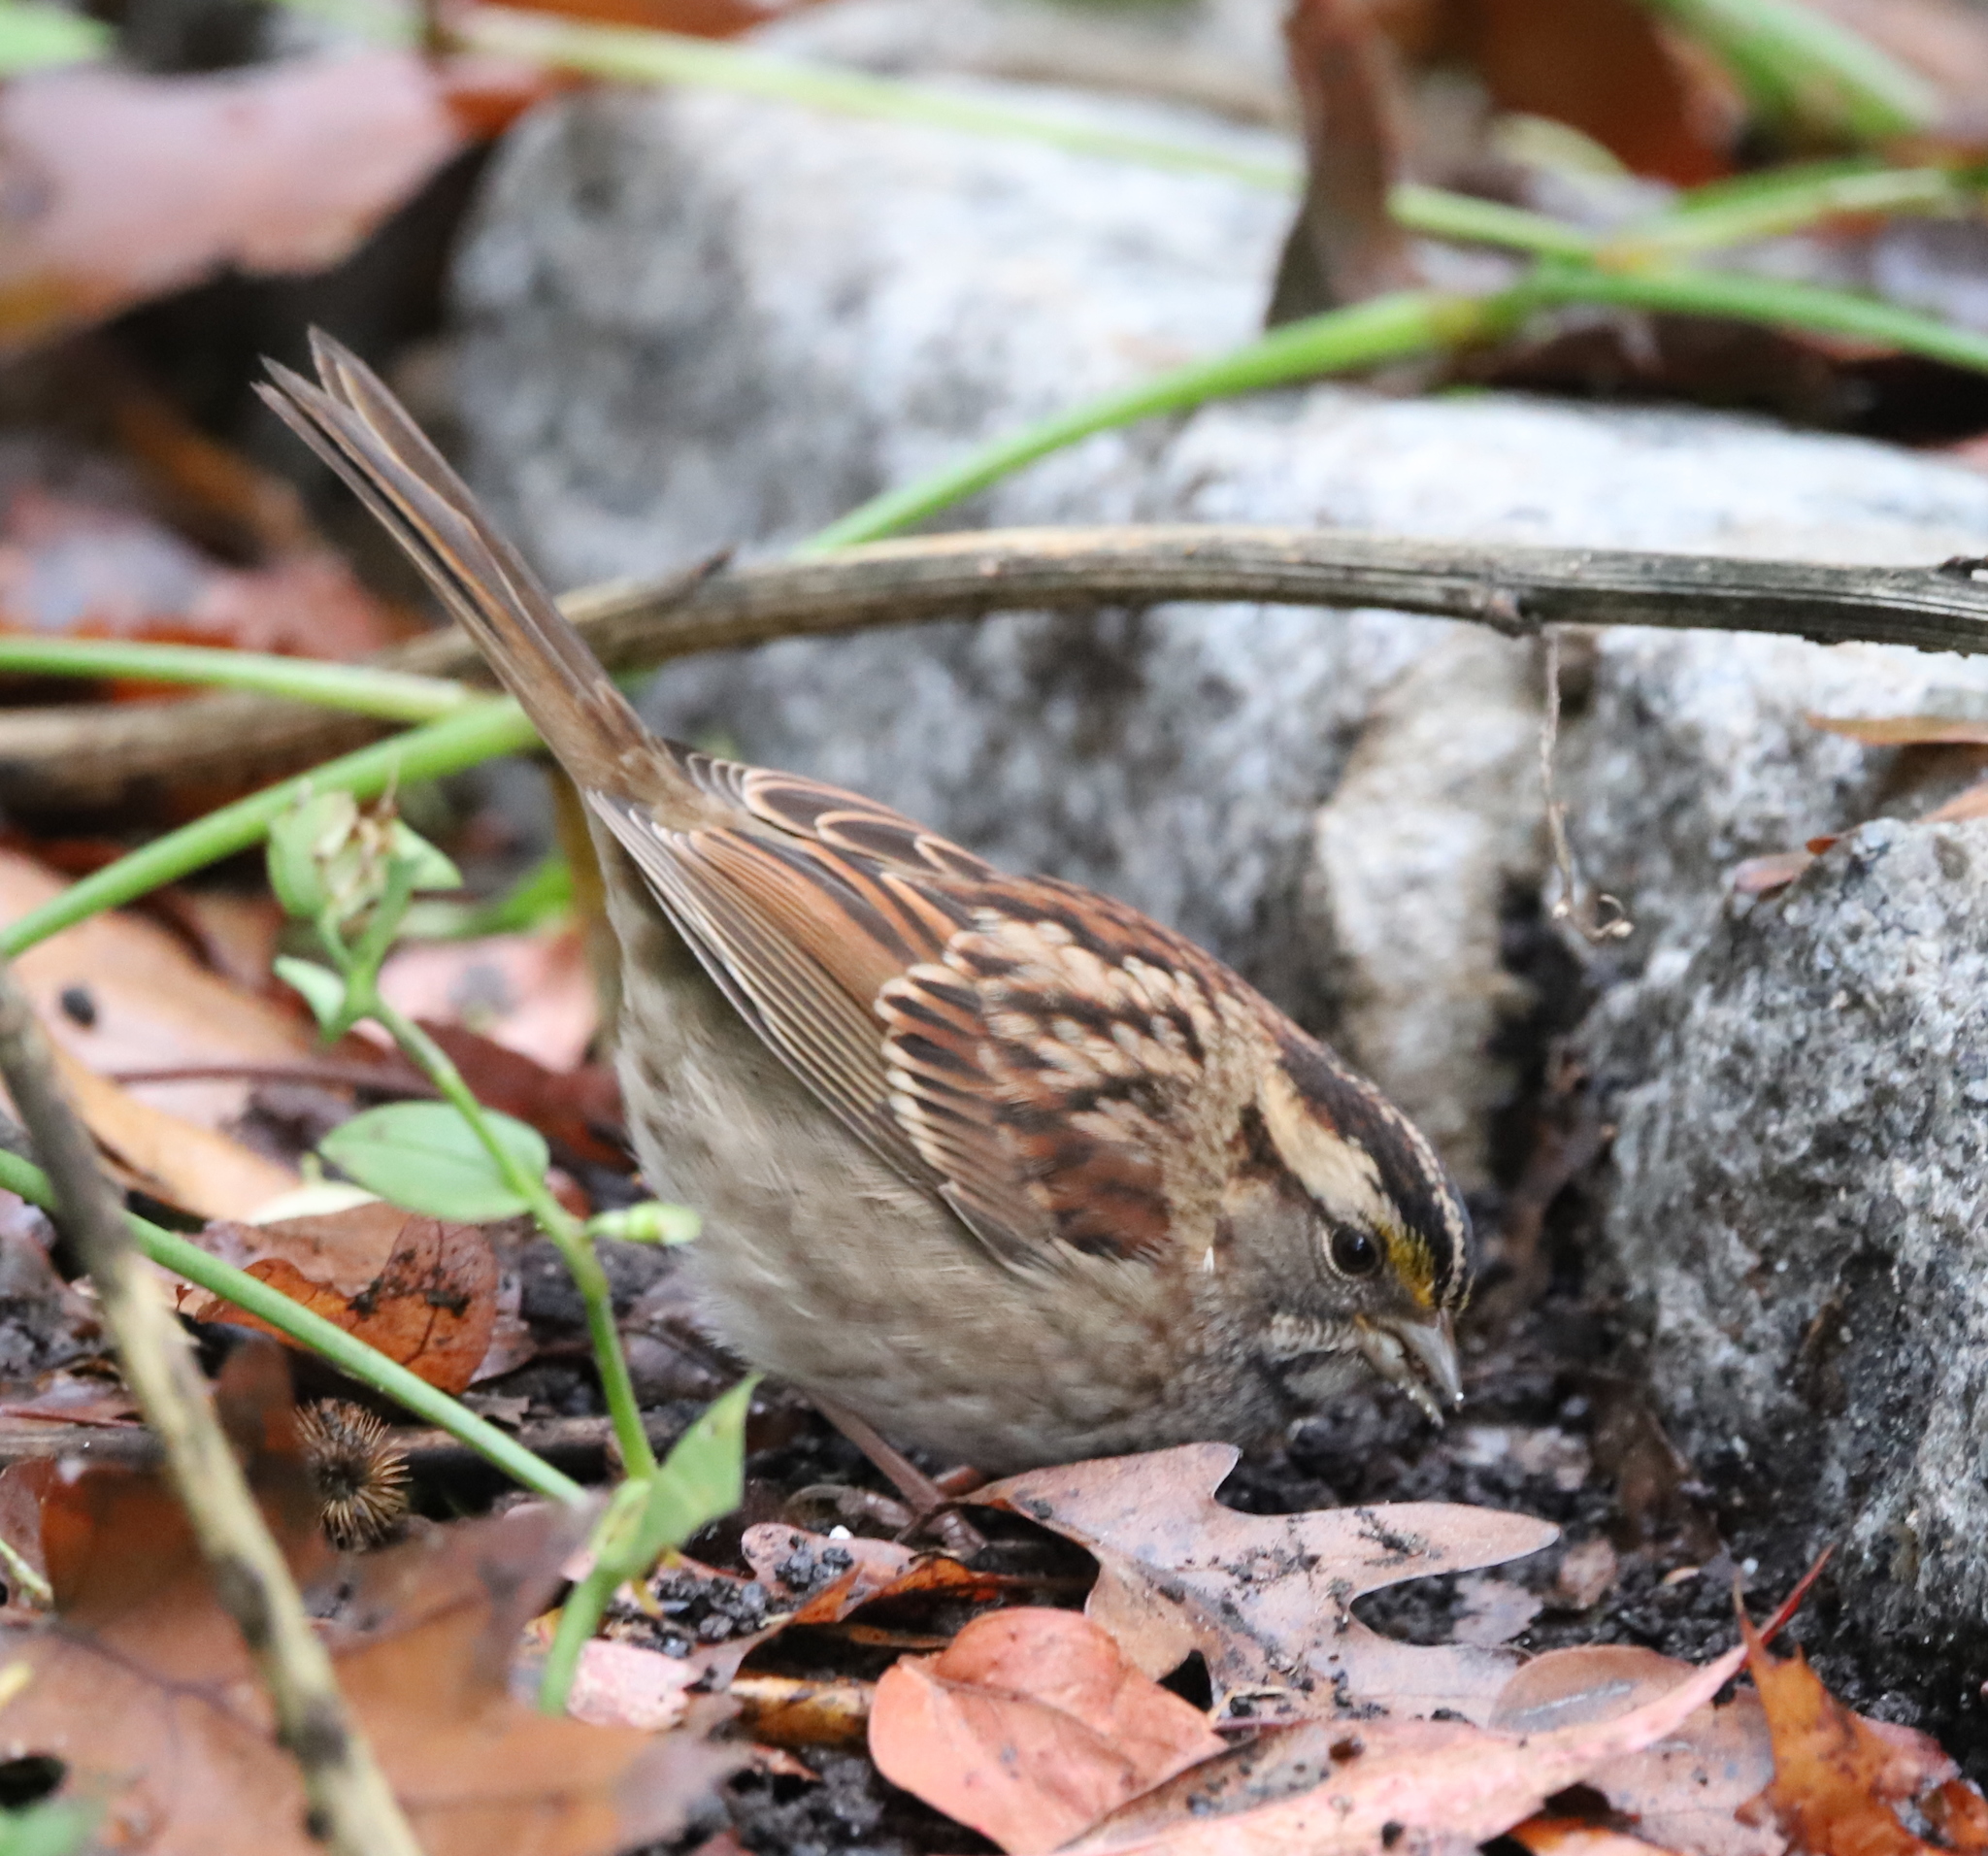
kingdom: Animalia
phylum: Chordata
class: Aves
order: Passeriformes
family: Passerellidae
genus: Zonotrichia
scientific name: Zonotrichia albicollis
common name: White-throated sparrow
